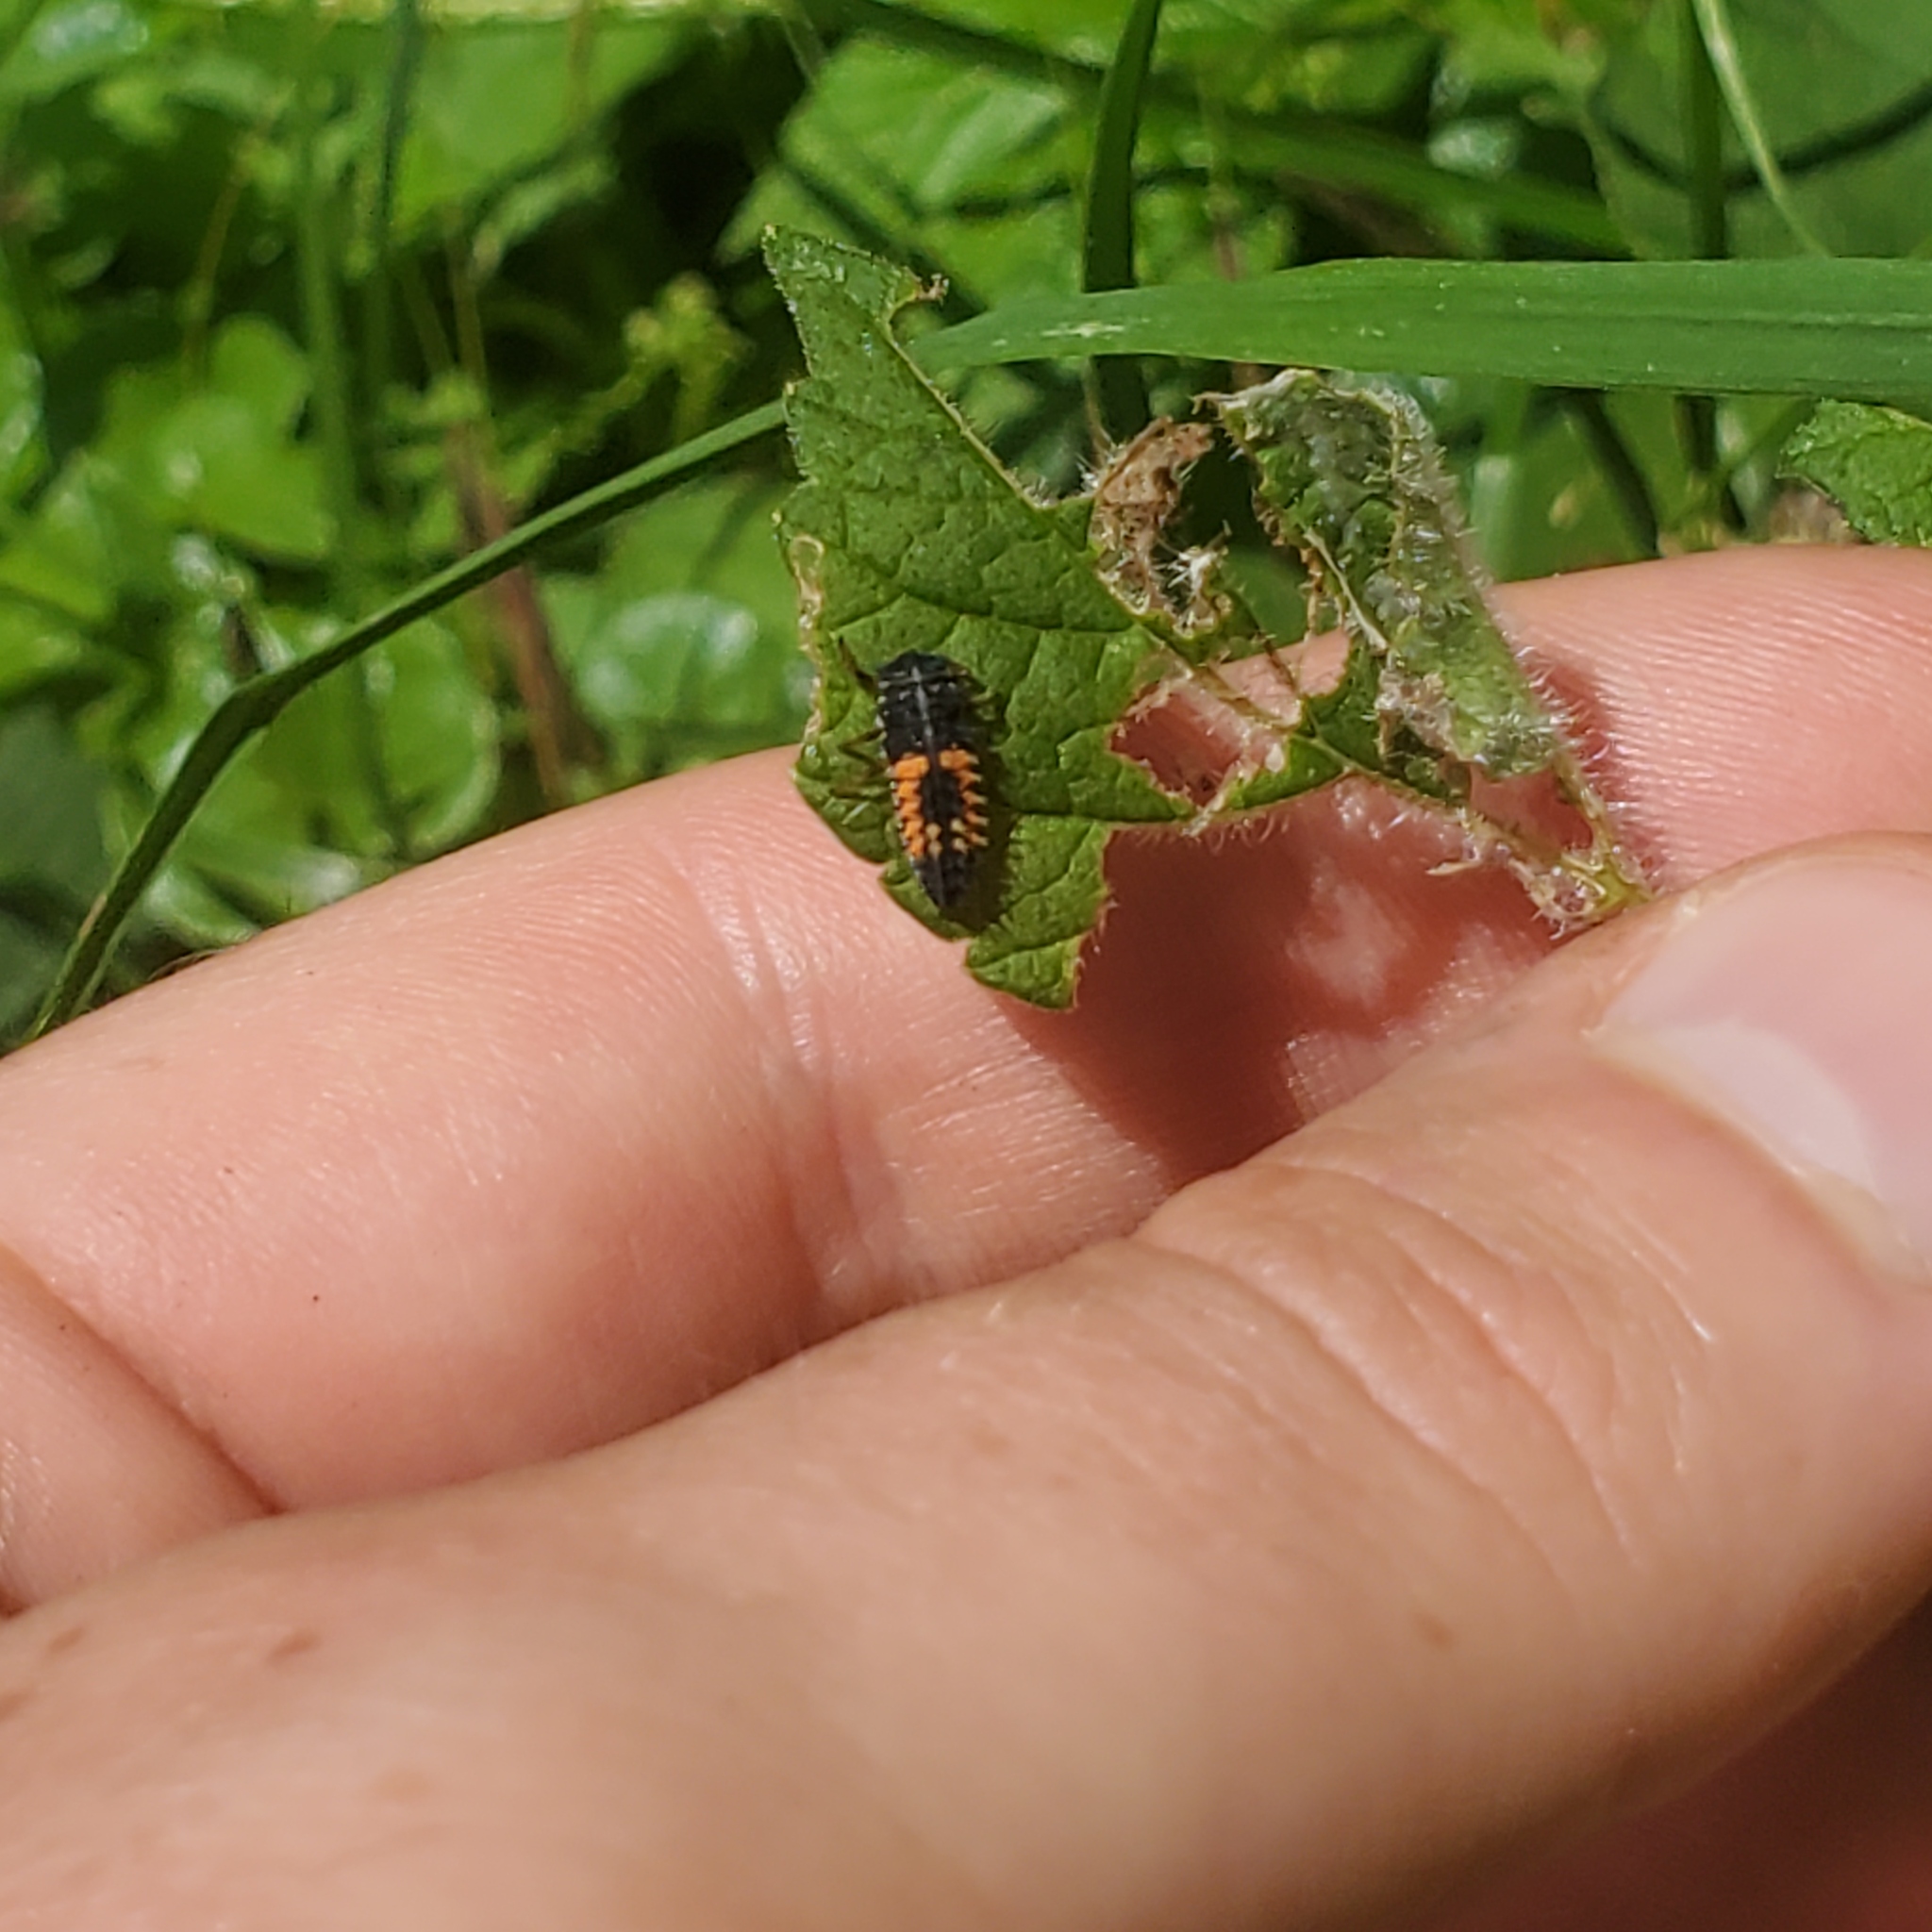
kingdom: Animalia
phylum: Arthropoda
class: Insecta
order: Coleoptera
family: Coccinellidae
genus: Harmonia
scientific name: Harmonia axyridis
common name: Harlequin ladybird
